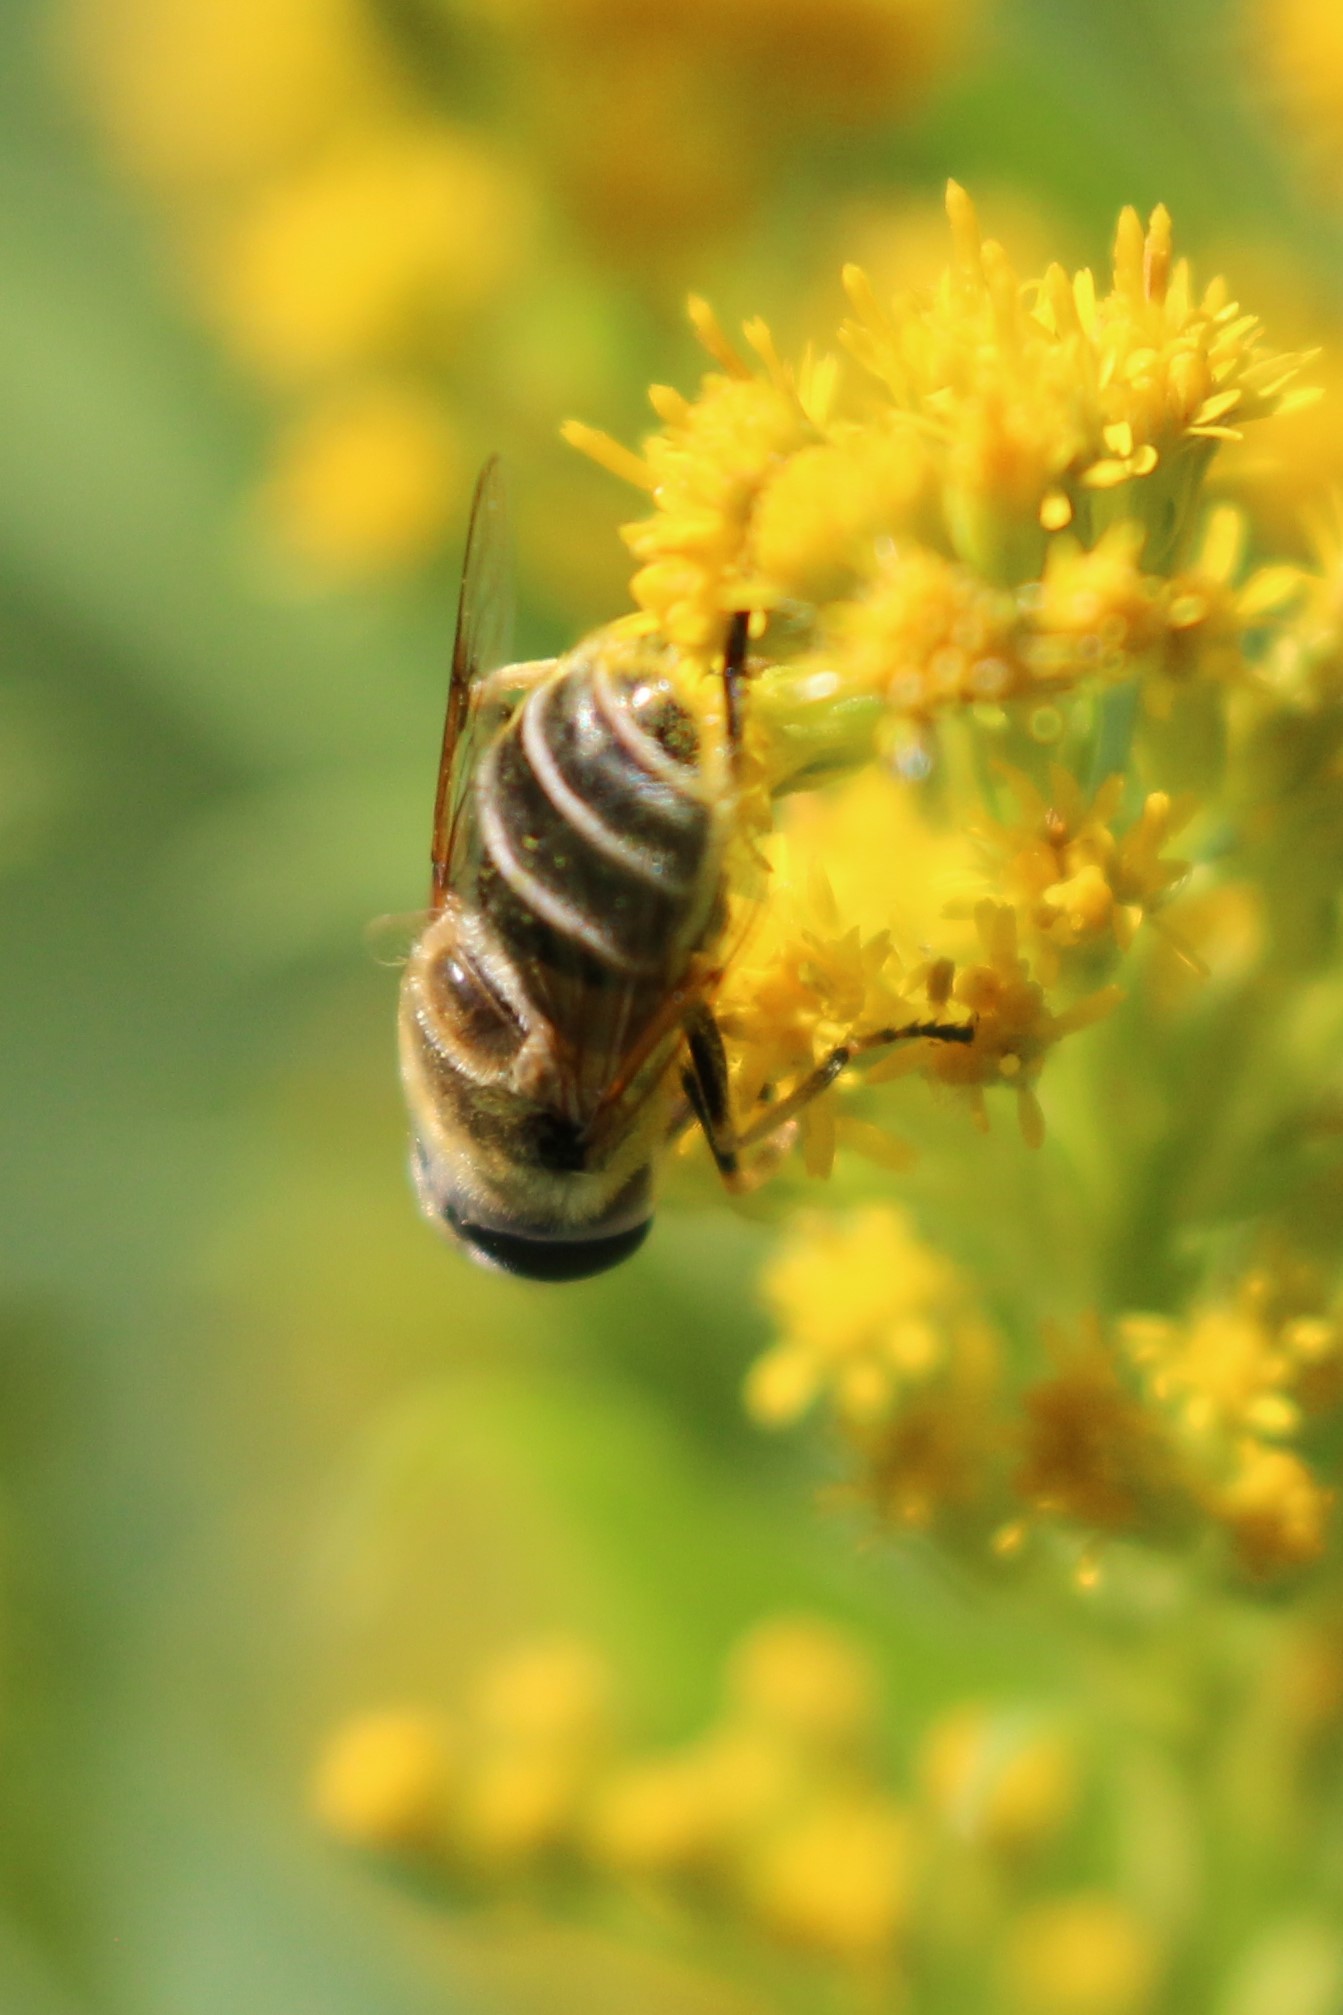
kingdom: Animalia
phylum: Arthropoda
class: Insecta
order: Diptera
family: Syrphidae
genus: Eristalis
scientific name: Eristalis stipator
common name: Yellow-shouldered drone fly
